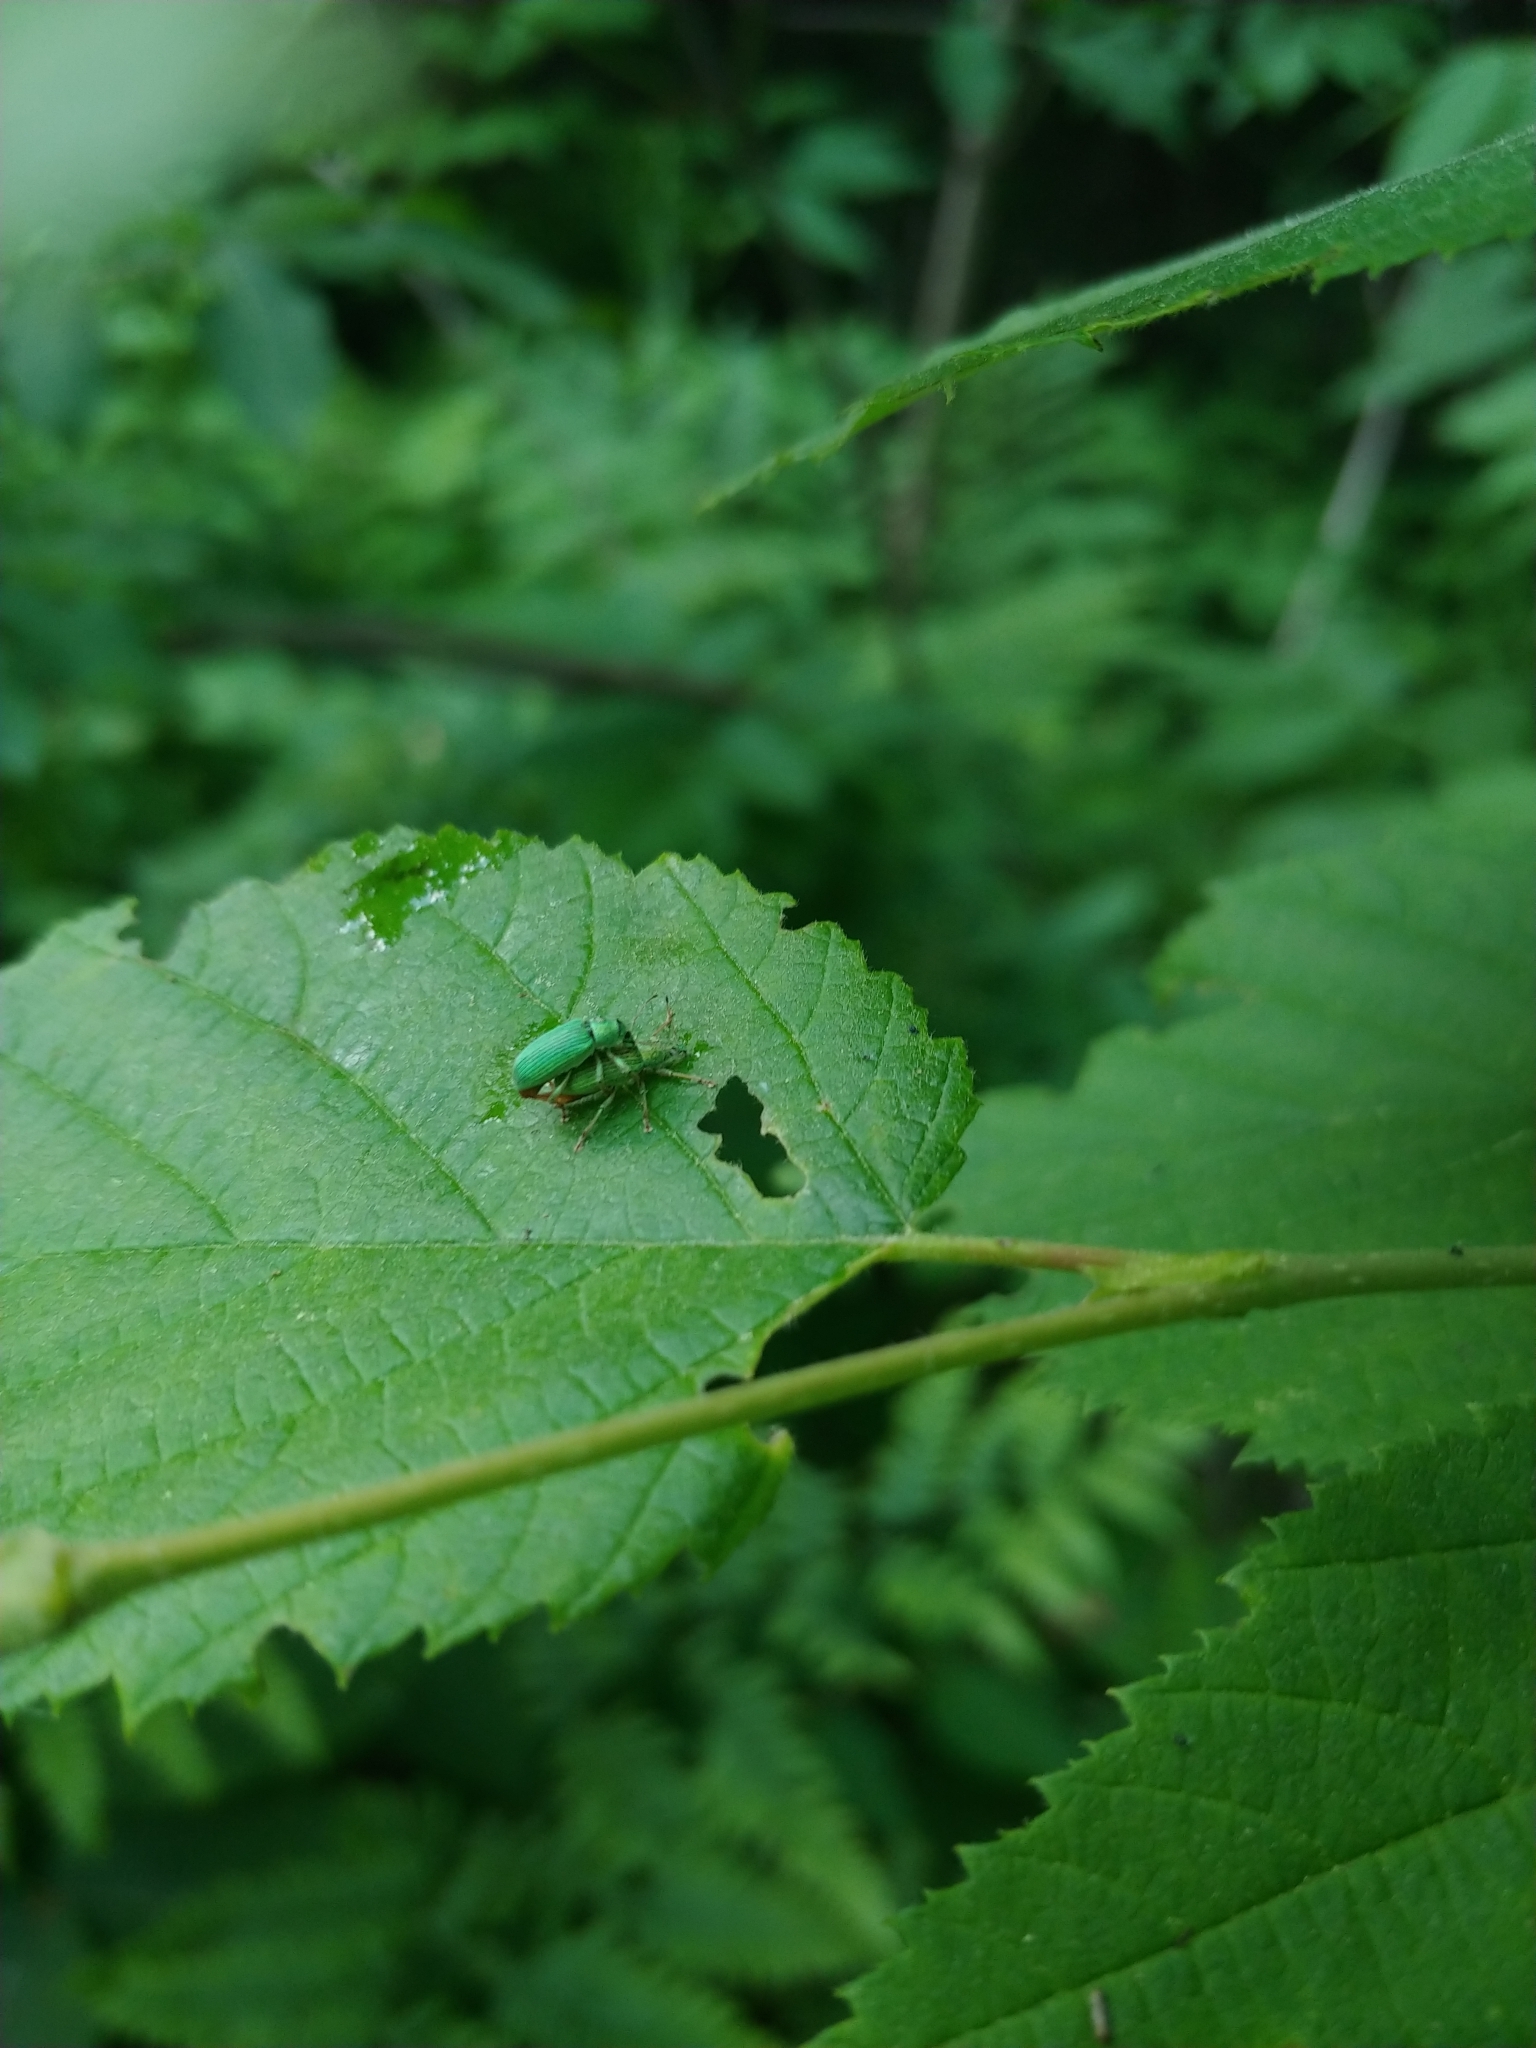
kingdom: Animalia
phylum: Arthropoda
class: Insecta
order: Coleoptera
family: Curculionidae
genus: Polydrusus
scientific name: Polydrusus formosus
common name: Weevil
